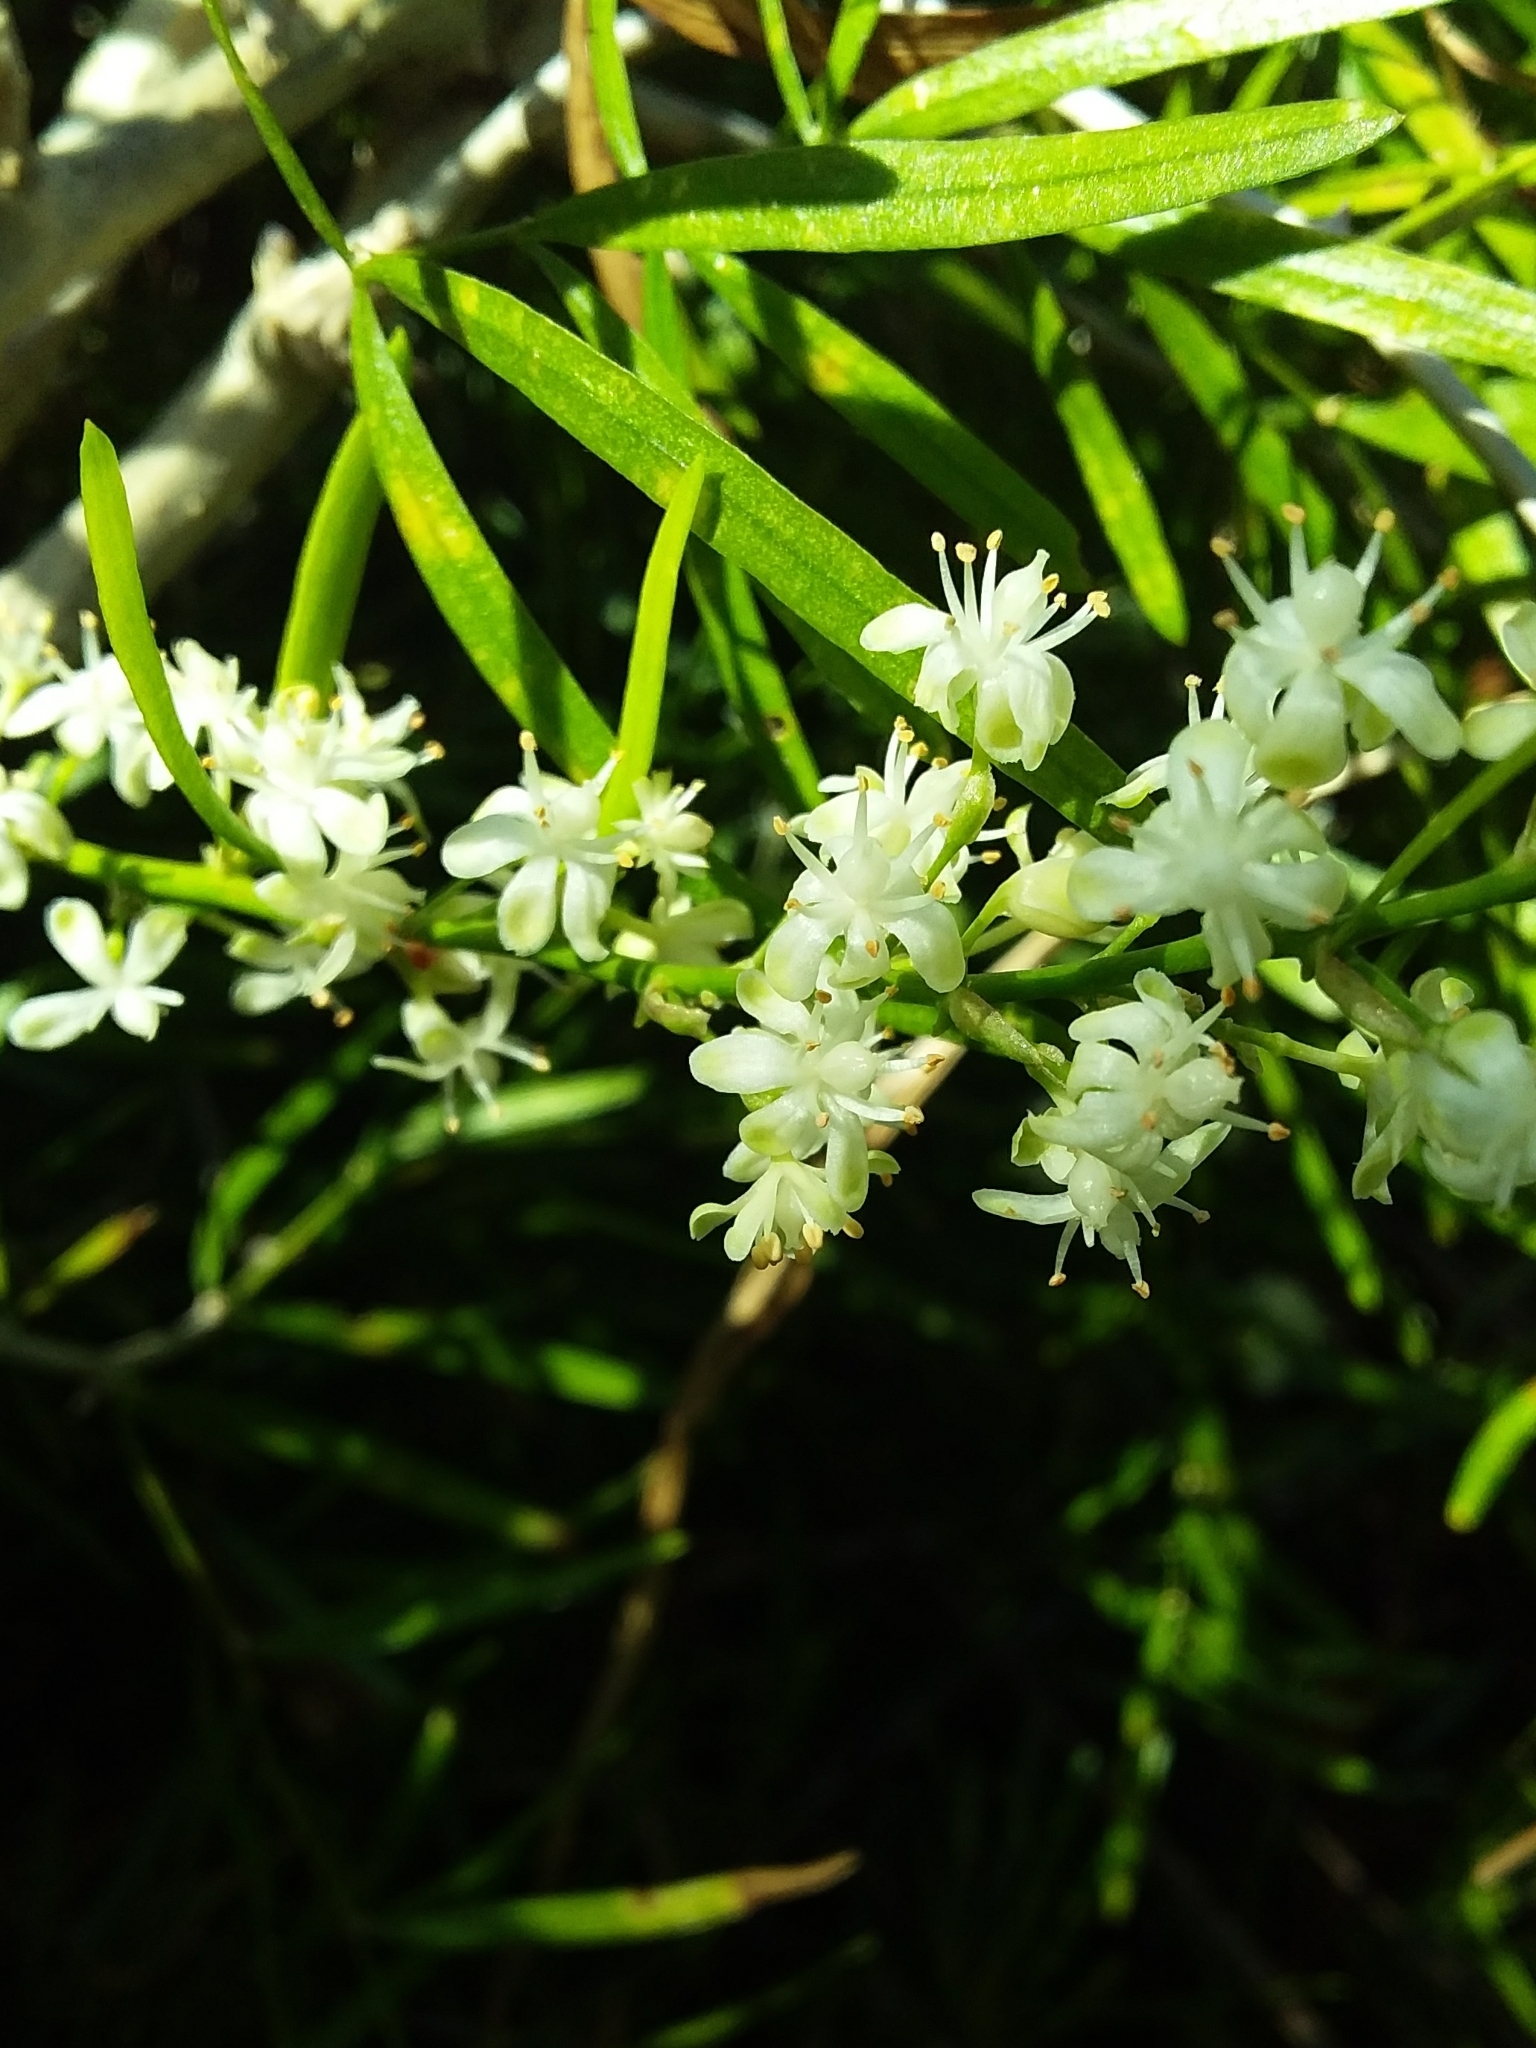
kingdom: Plantae
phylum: Tracheophyta
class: Liliopsida
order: Asparagales
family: Asparagaceae
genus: Asparagus
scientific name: Asparagus falcatus
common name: Asparagus
